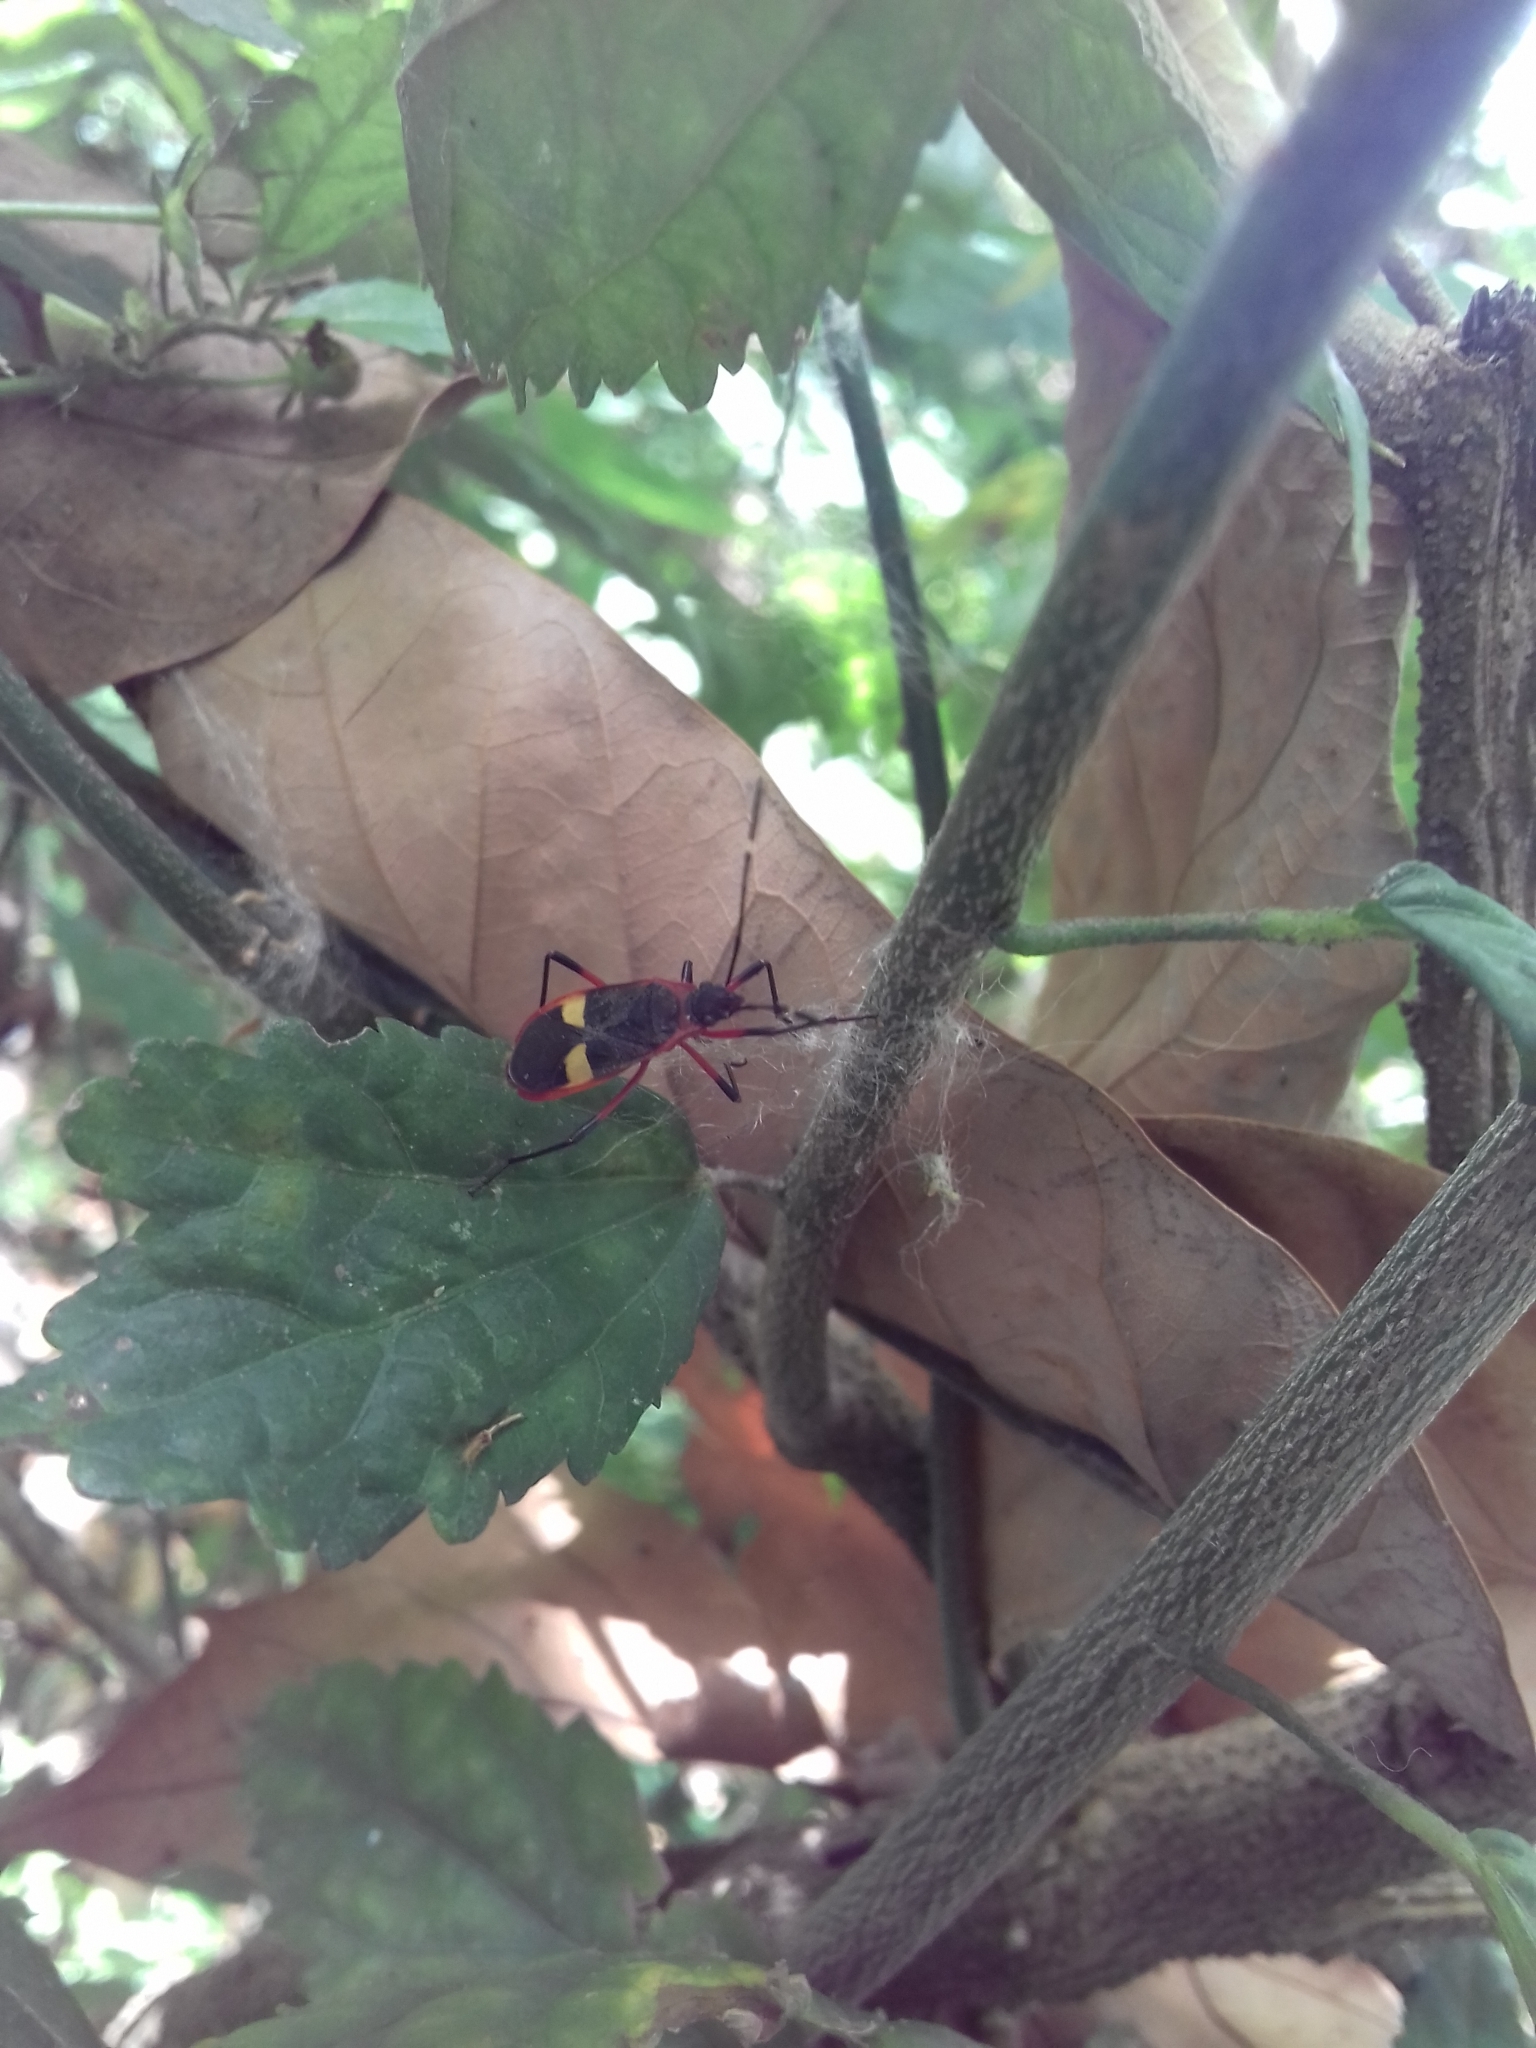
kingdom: Animalia
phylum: Arthropoda
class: Insecta
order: Hemiptera
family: Pyrrhocoridae
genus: Dysdercus
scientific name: Dysdercus albofasciatus
